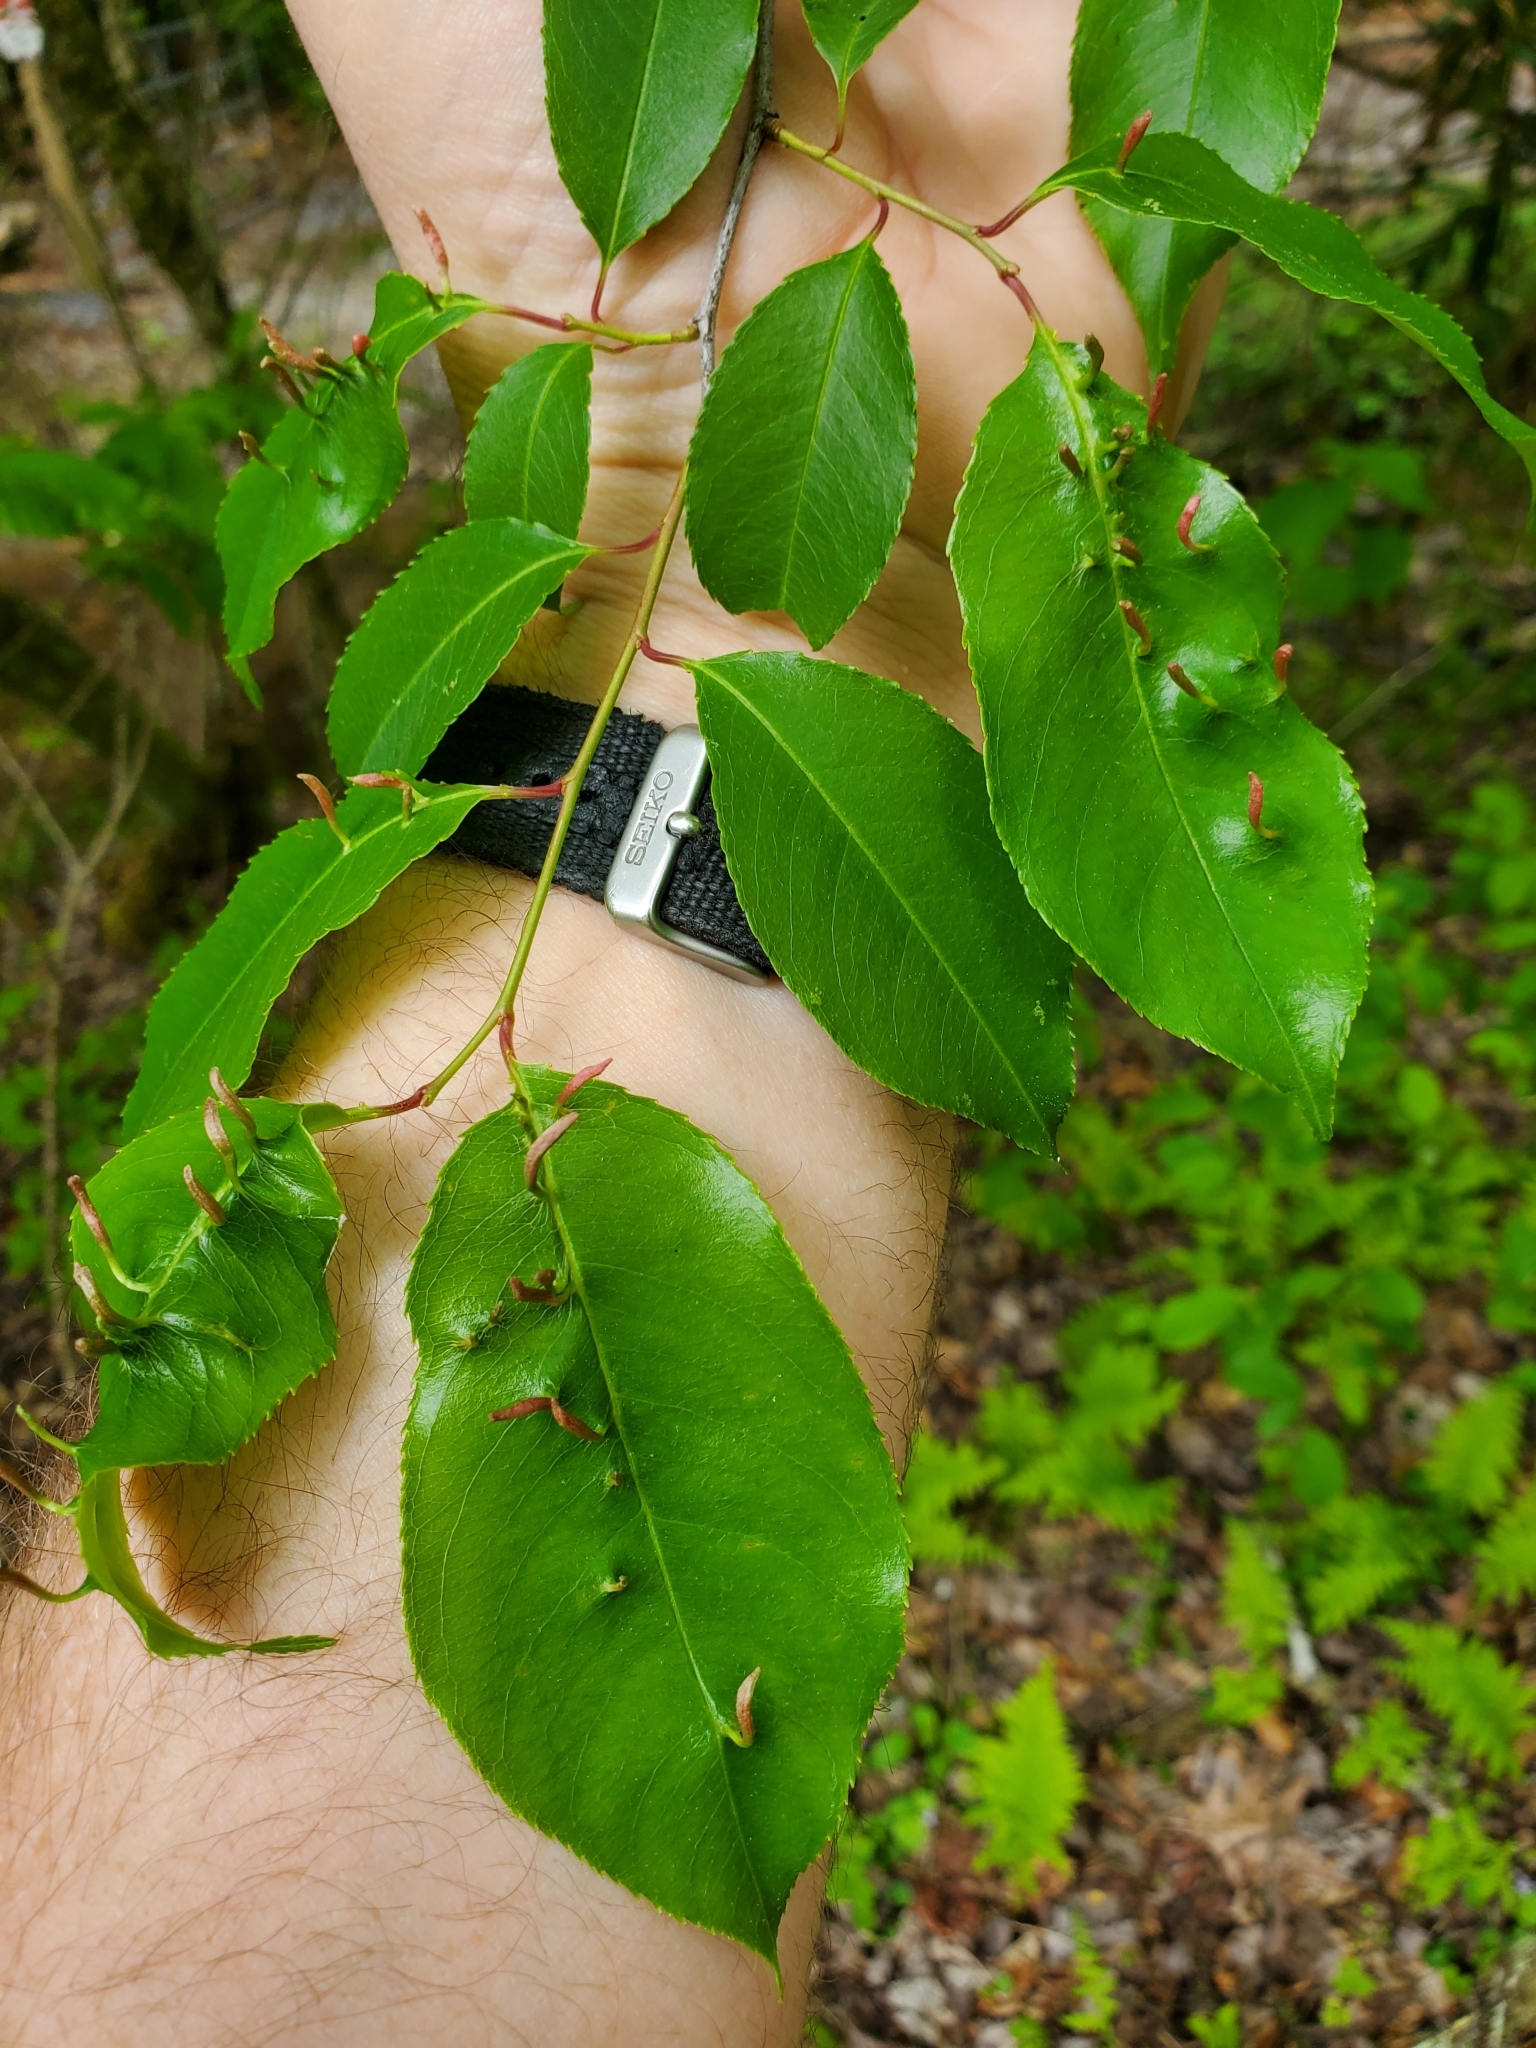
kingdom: Animalia
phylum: Arthropoda
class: Arachnida
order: Trombidiformes
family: Eriophyidae
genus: Eriophyes
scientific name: Eriophyes
